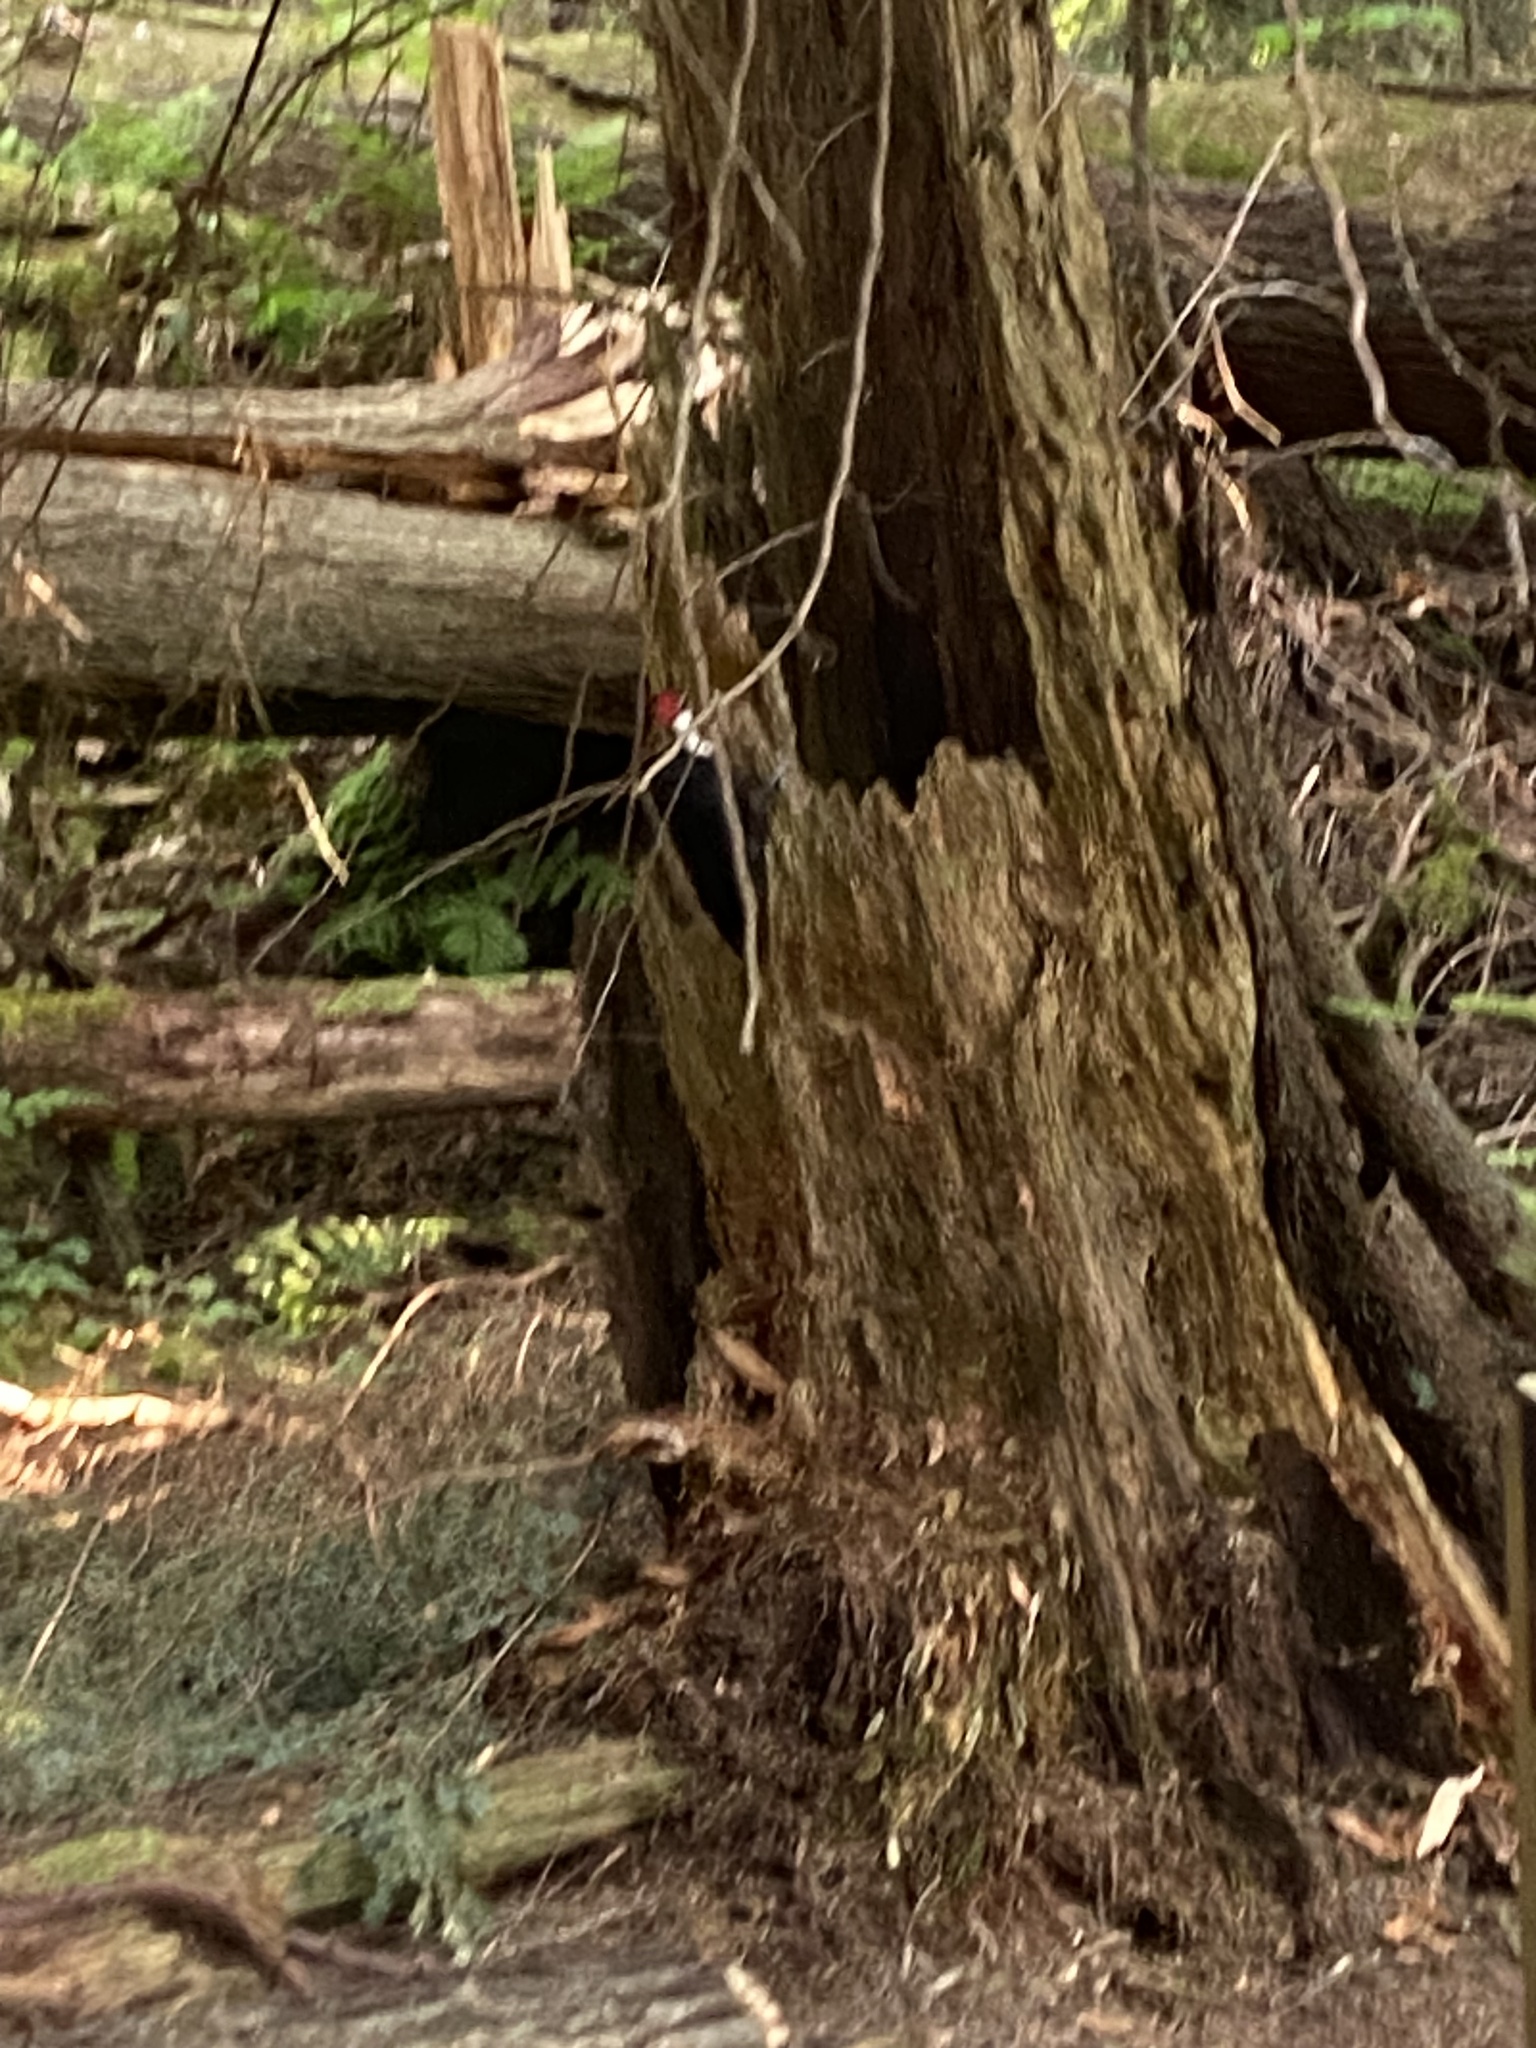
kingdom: Animalia
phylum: Chordata
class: Aves
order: Piciformes
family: Picidae
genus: Dryocopus
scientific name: Dryocopus pileatus
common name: Pileated woodpecker
